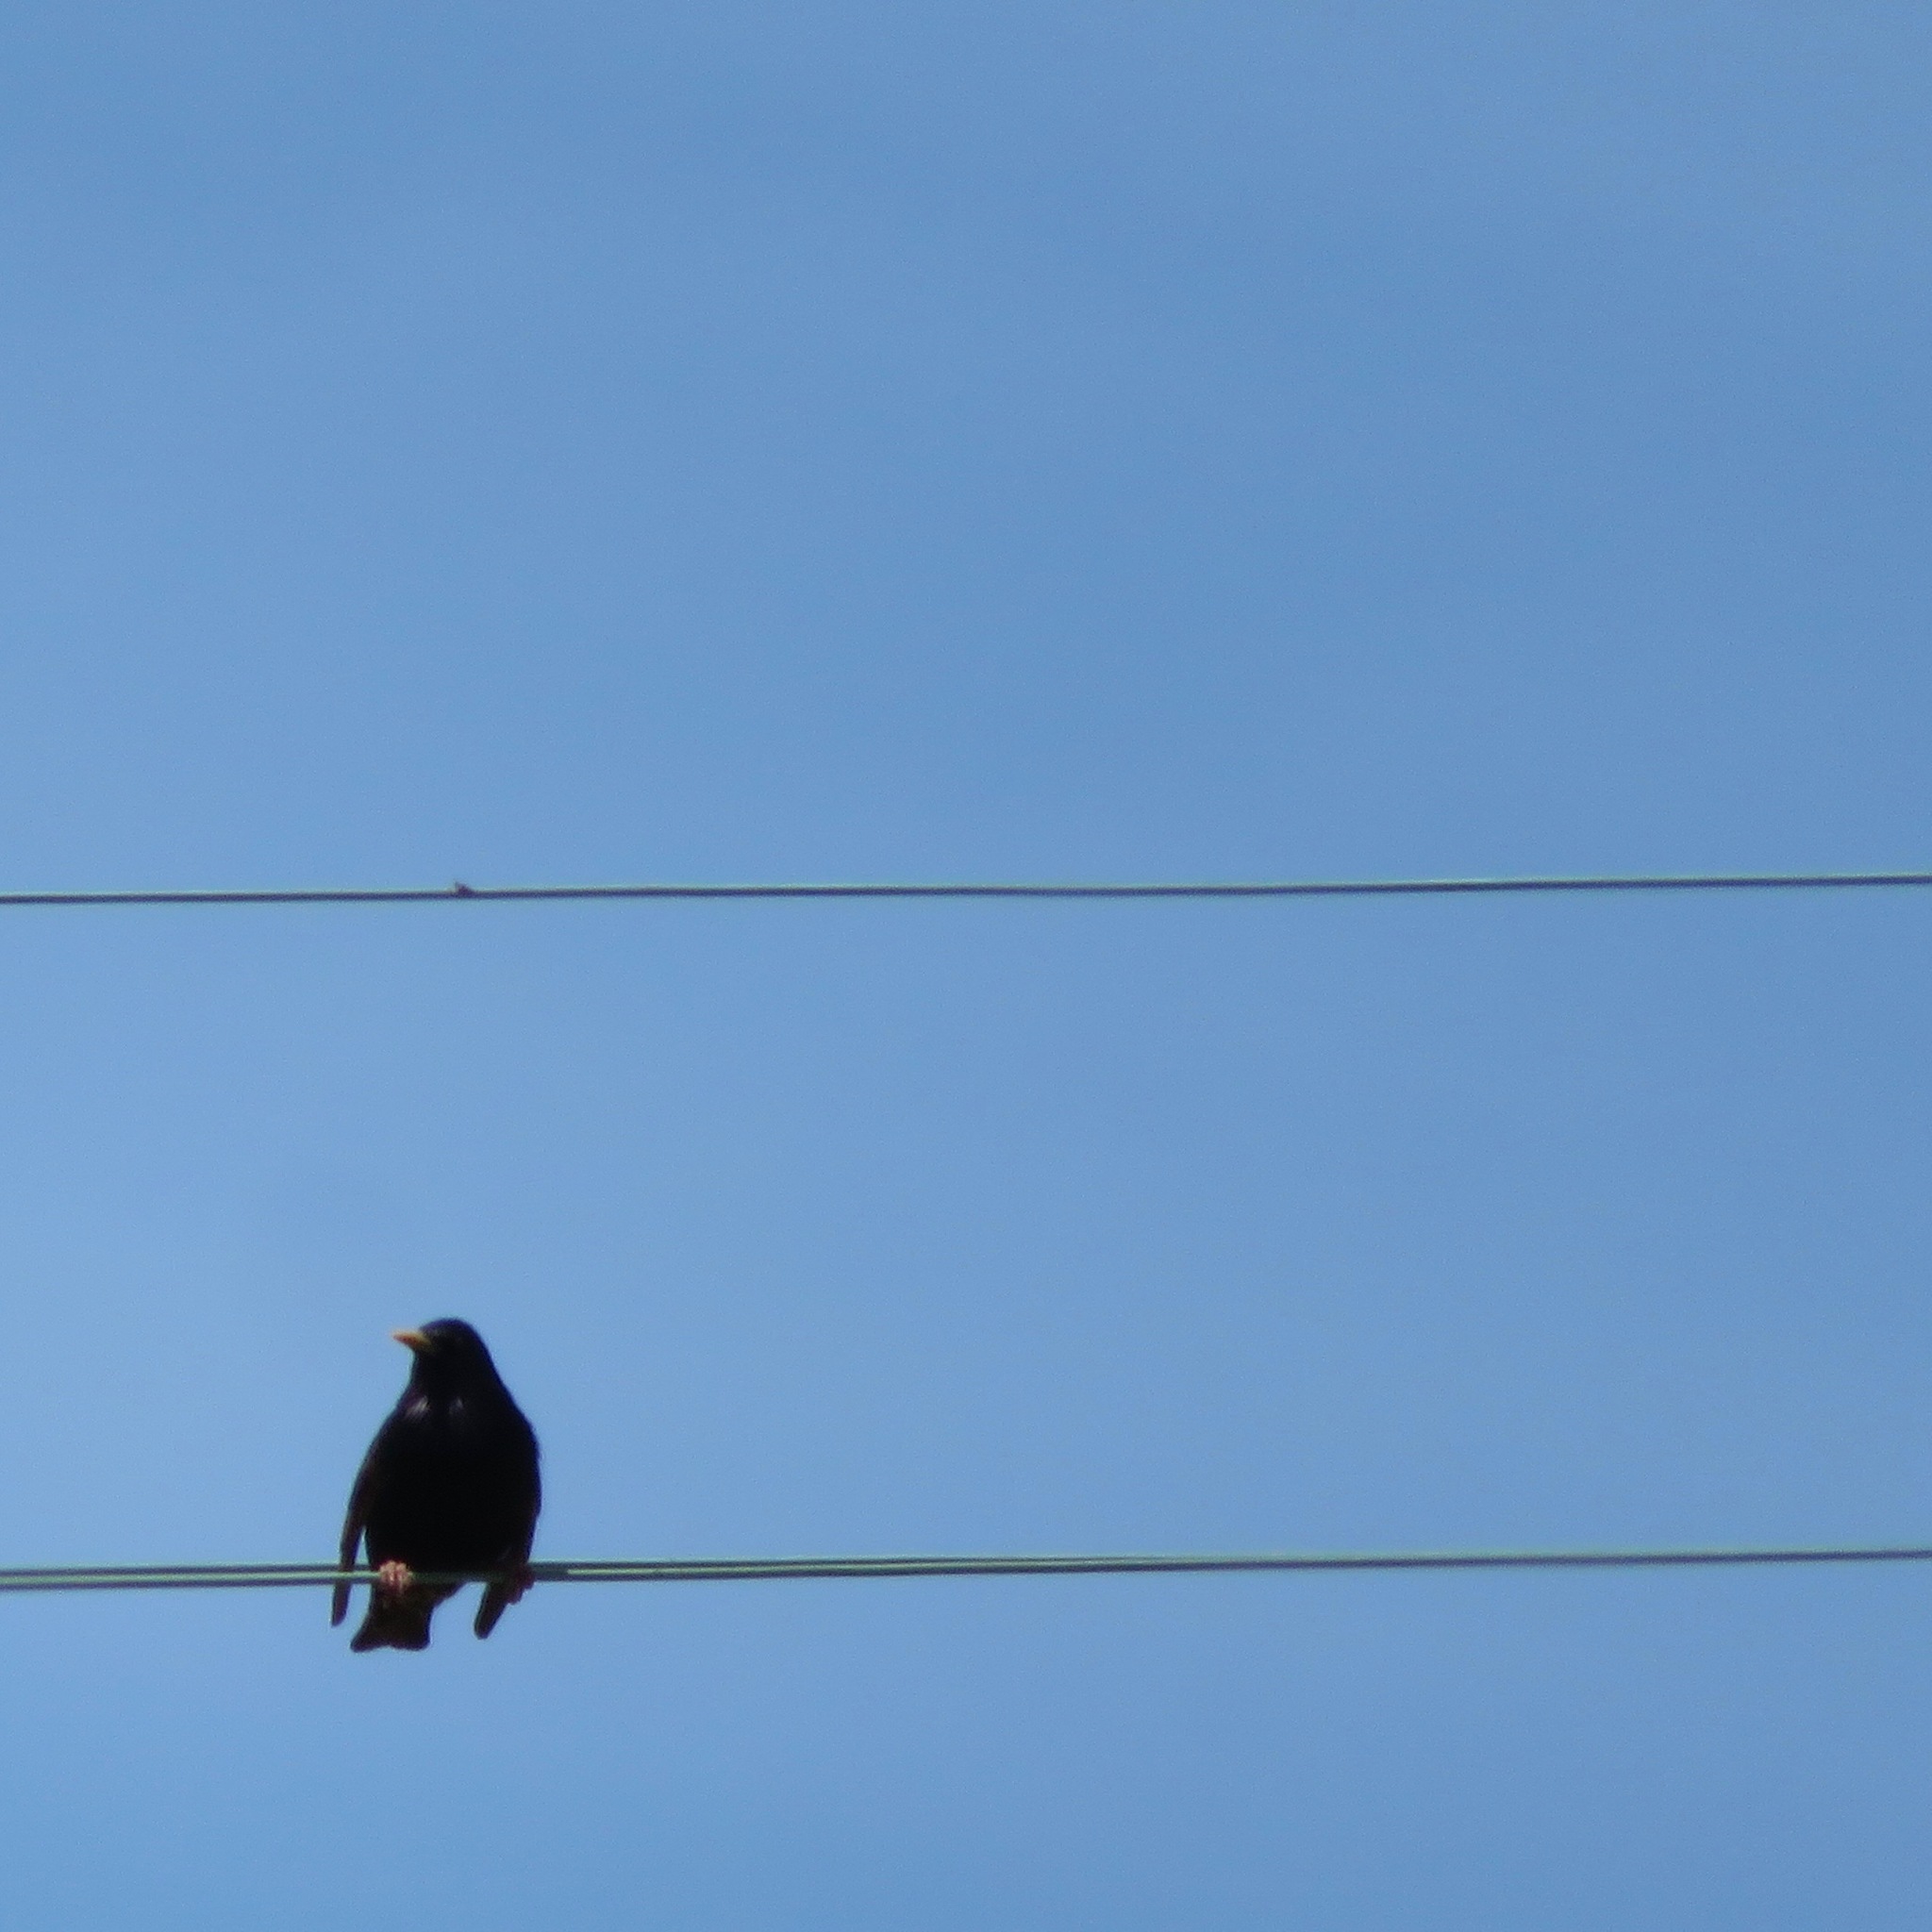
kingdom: Animalia
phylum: Chordata
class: Aves
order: Passeriformes
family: Sturnidae
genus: Sturnus
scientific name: Sturnus vulgaris
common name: Common starling
